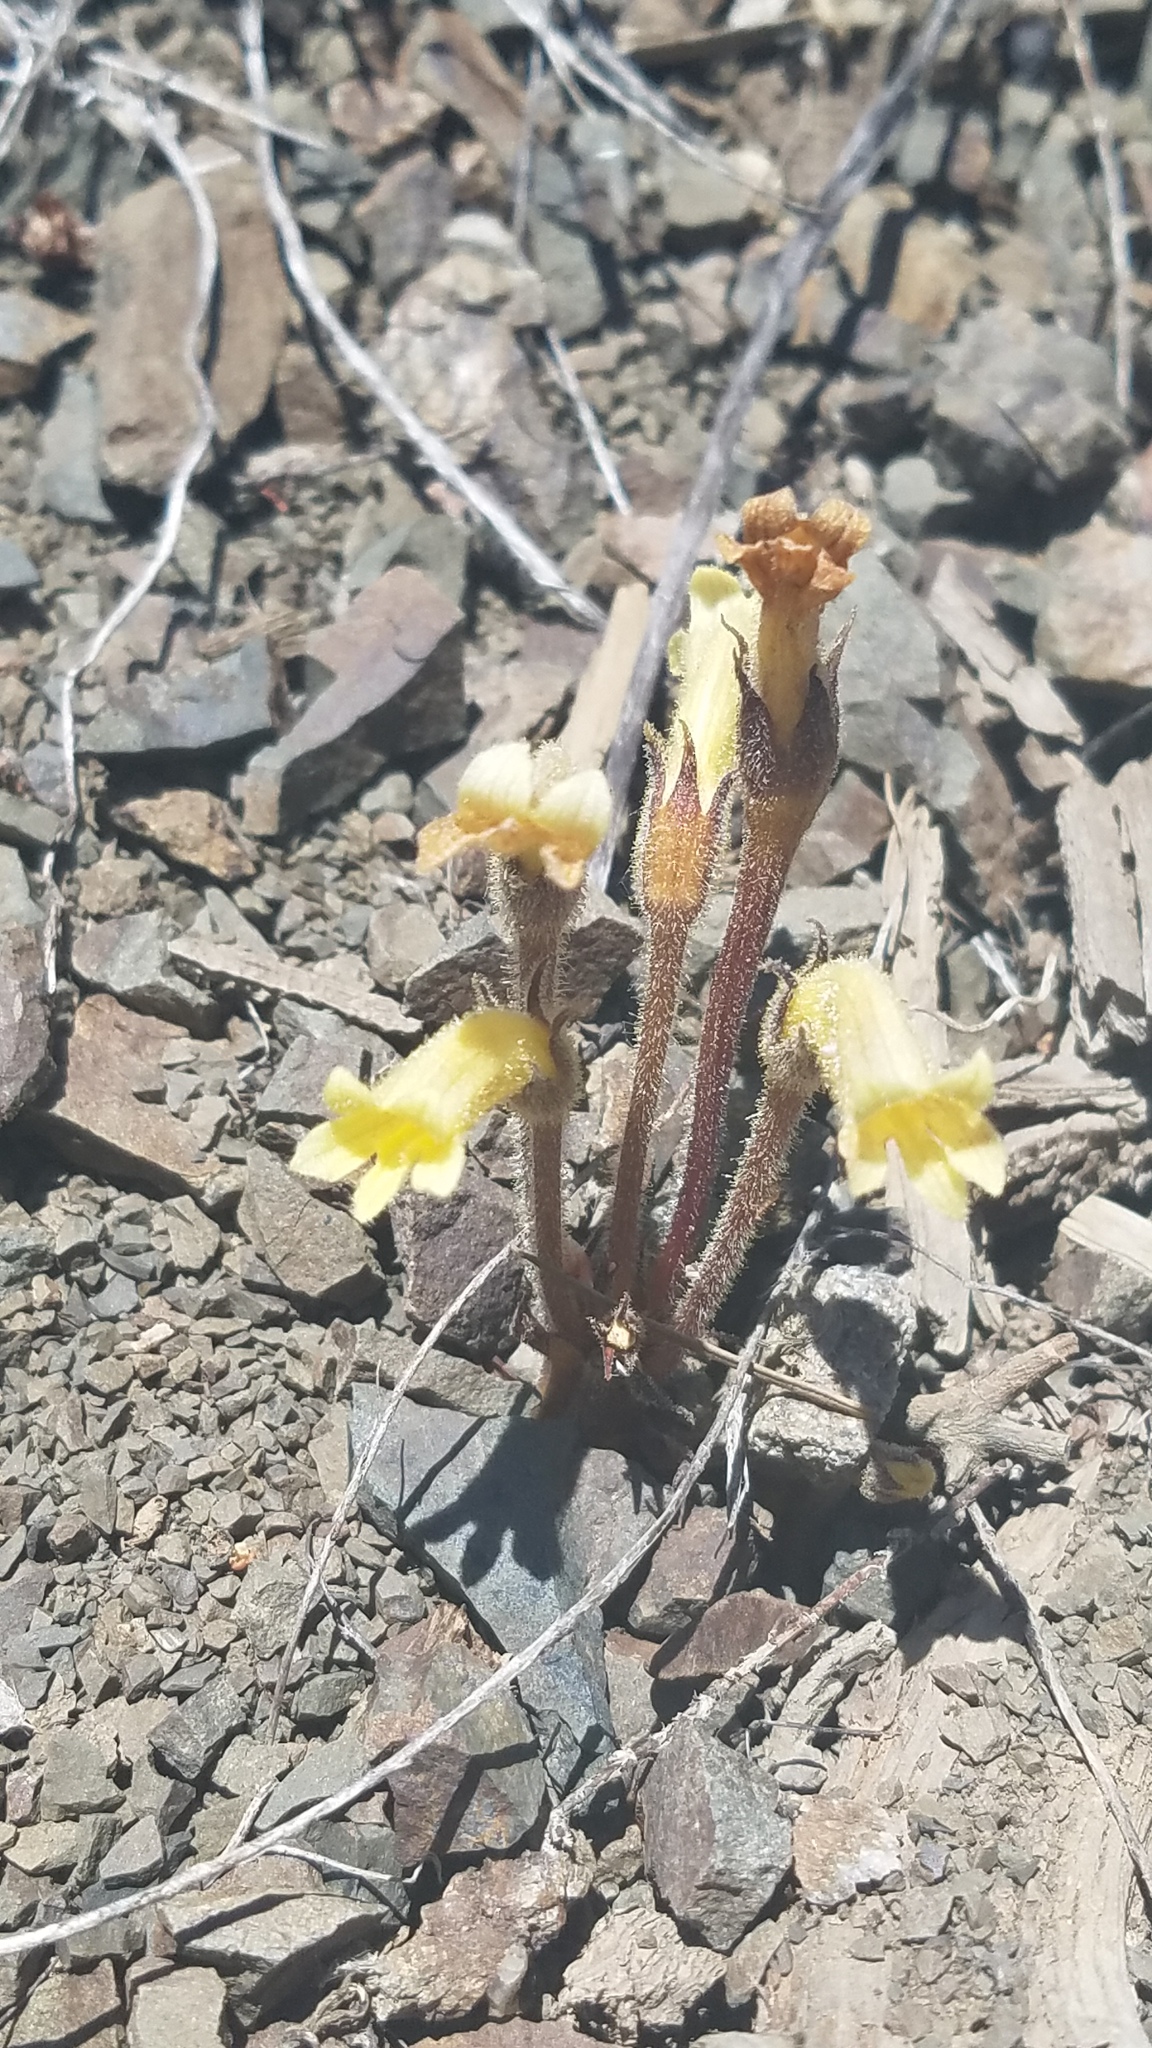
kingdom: Plantae
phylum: Tracheophyta
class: Magnoliopsida
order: Lamiales
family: Orobanchaceae
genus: Aphyllon
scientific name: Aphyllon franciscanum
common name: San francisco broomrape
